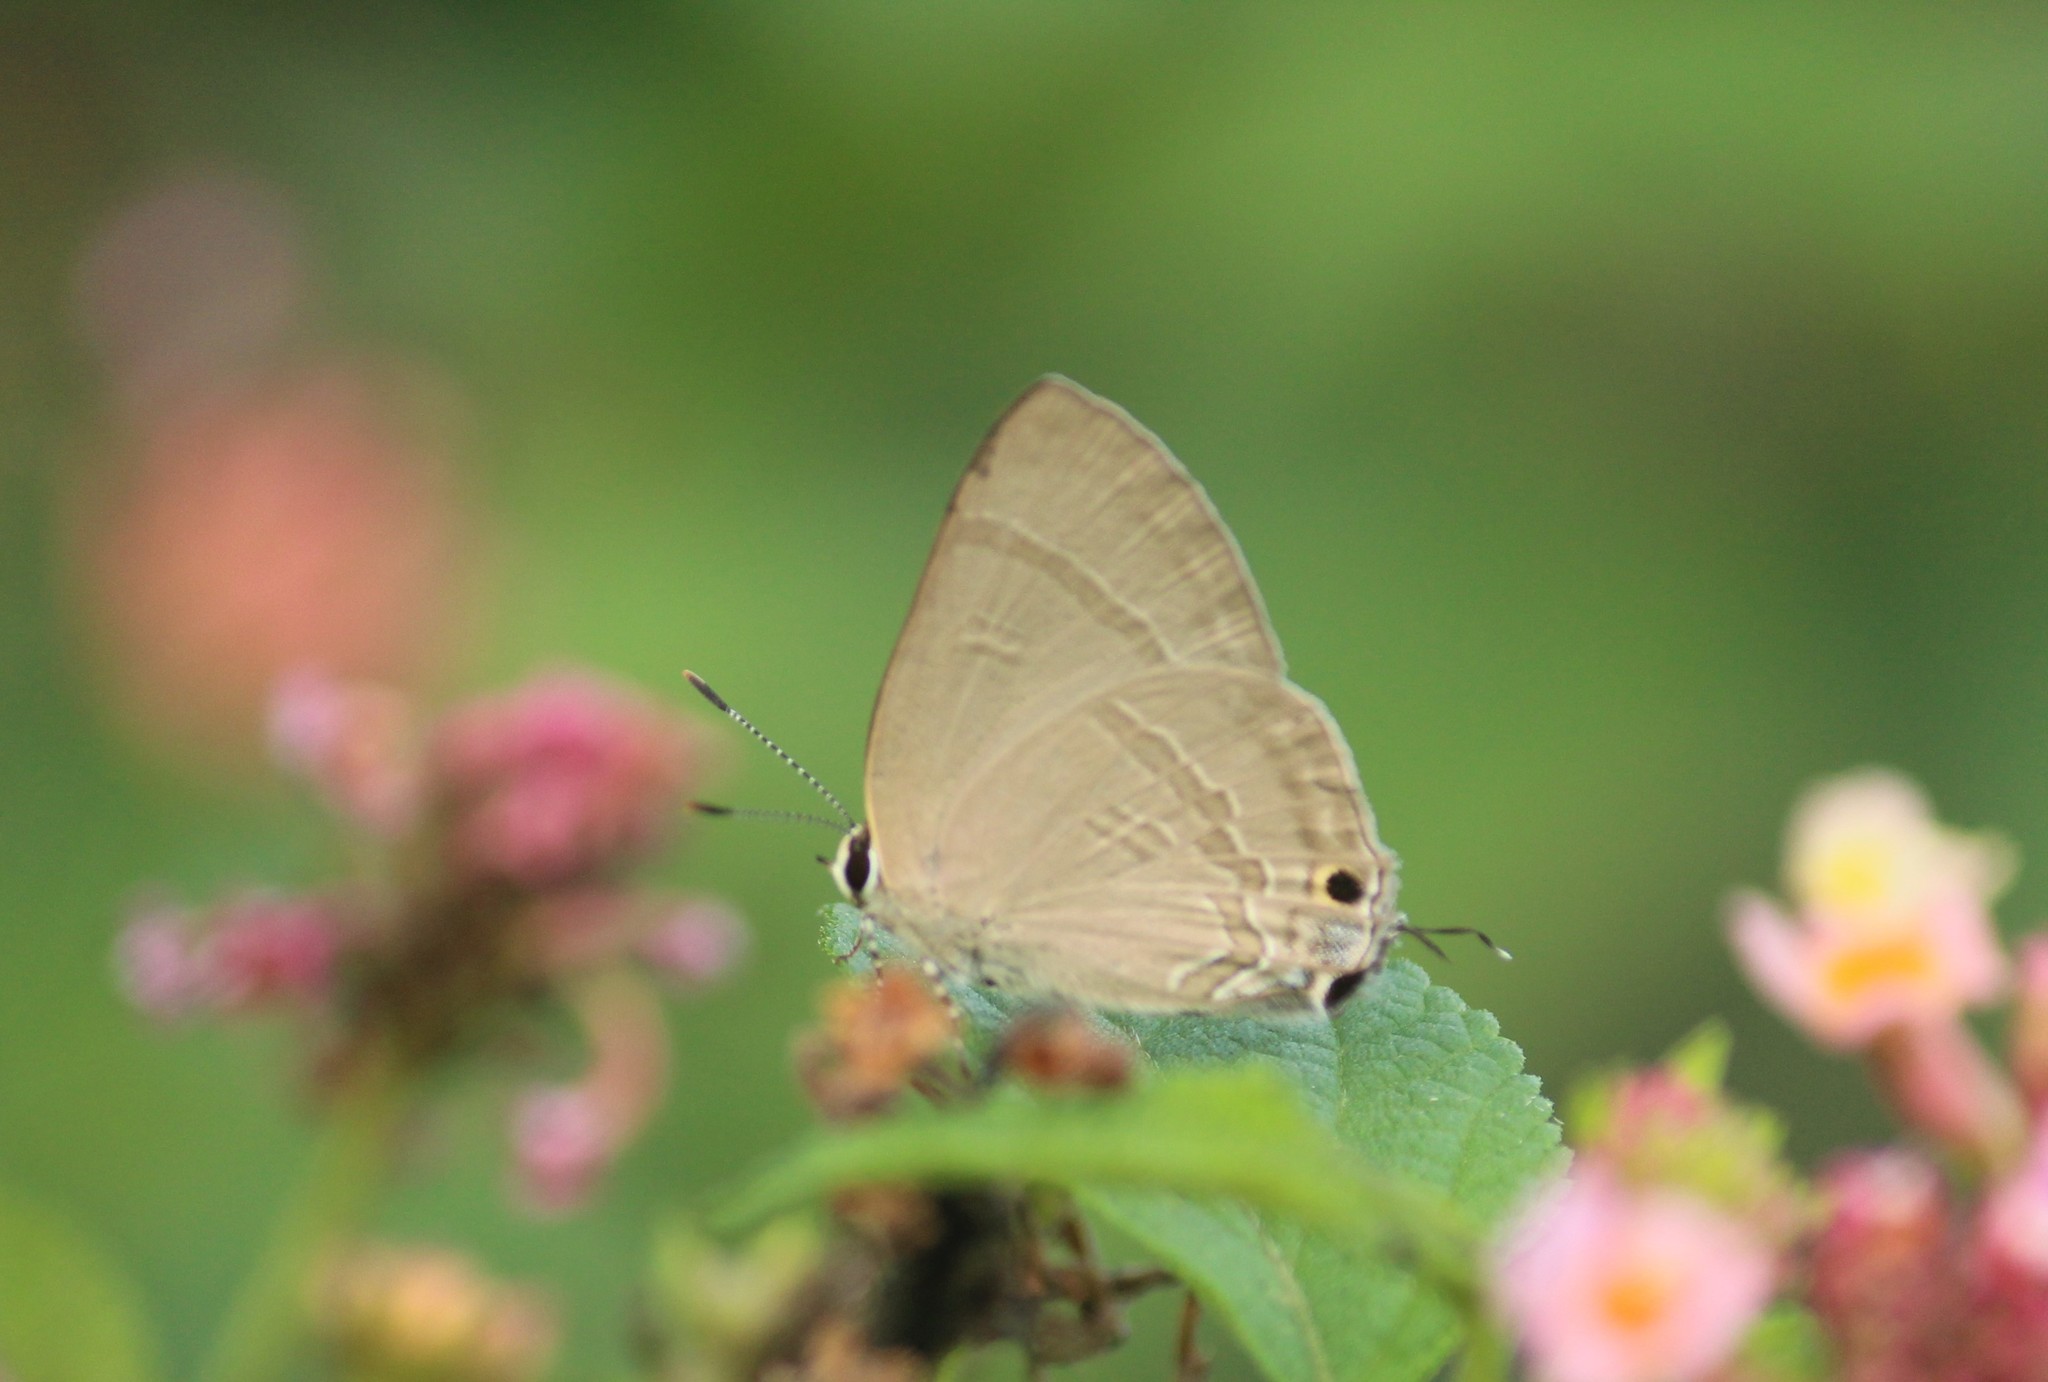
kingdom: Animalia
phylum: Arthropoda
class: Insecta
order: Lepidoptera
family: Lycaenidae
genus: Rapala
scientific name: Rapala manea
